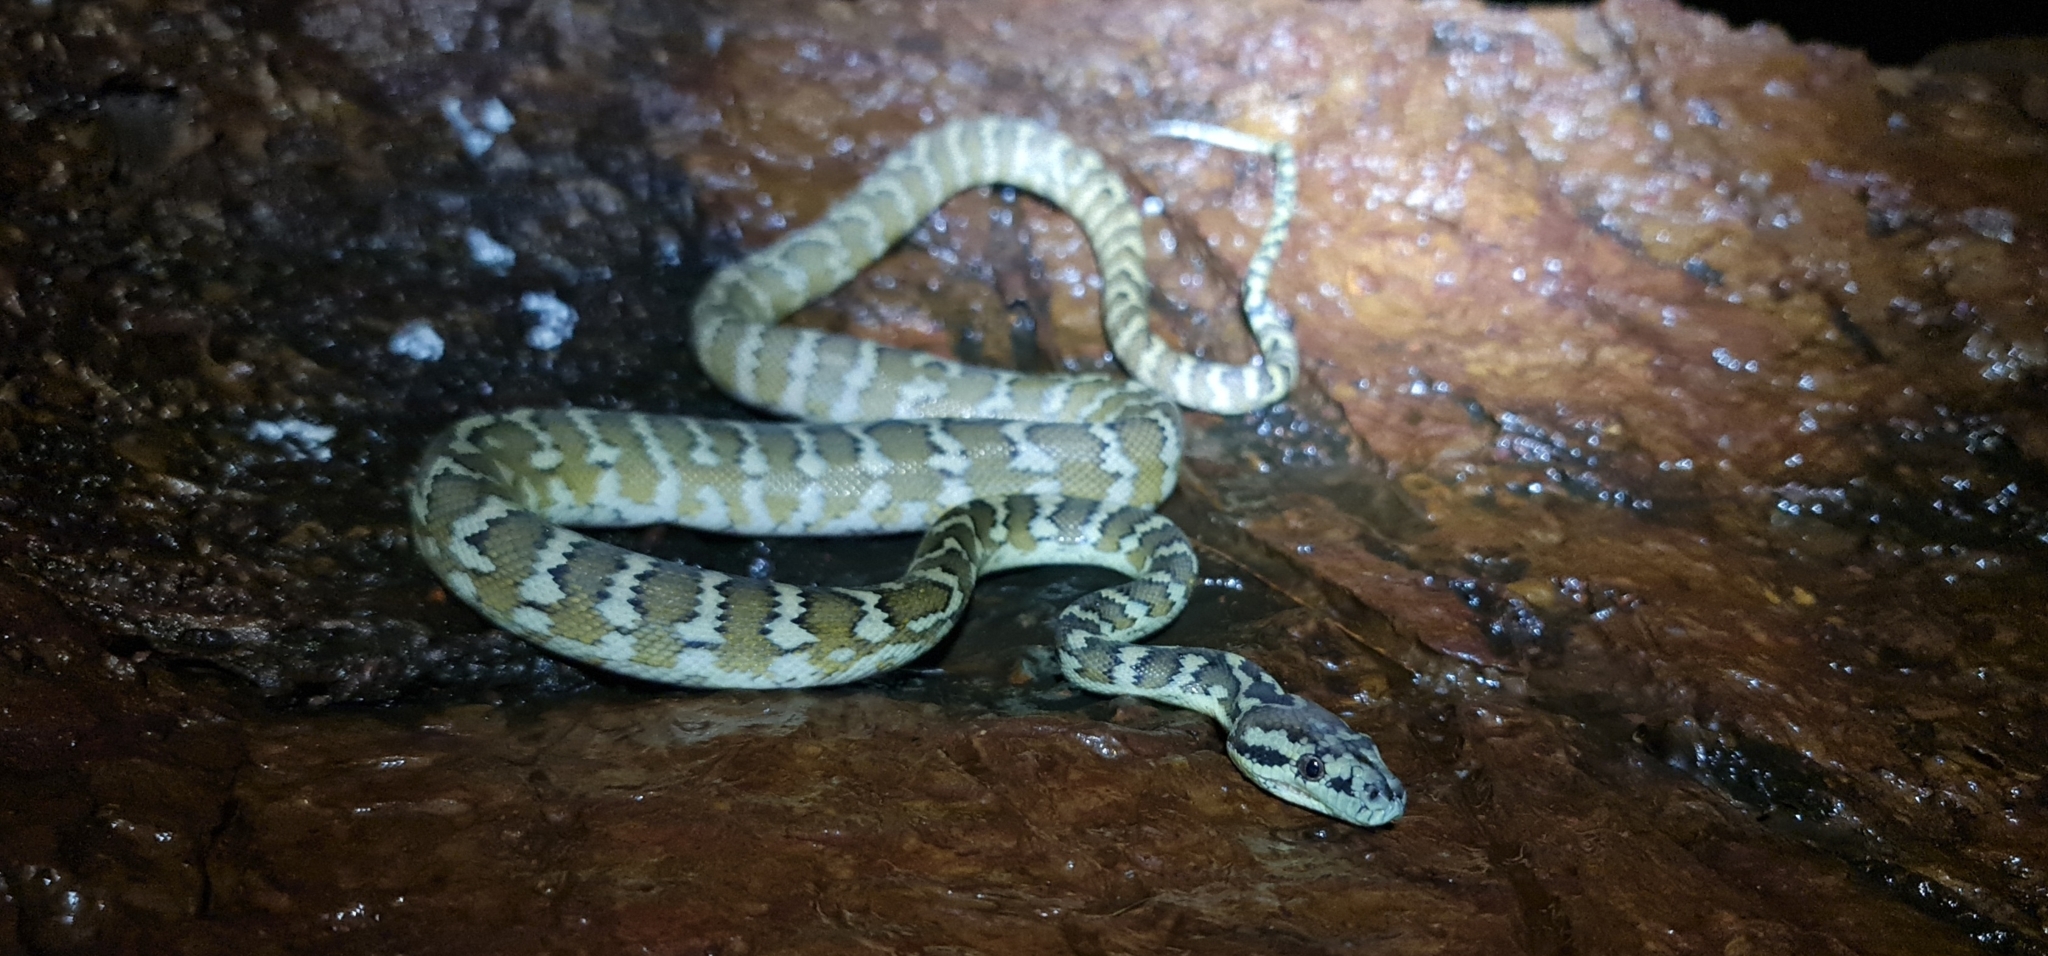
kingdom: Animalia
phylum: Chordata
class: Squamata
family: Pythonidae
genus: Morelia
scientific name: Morelia spilota
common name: Carpet python
